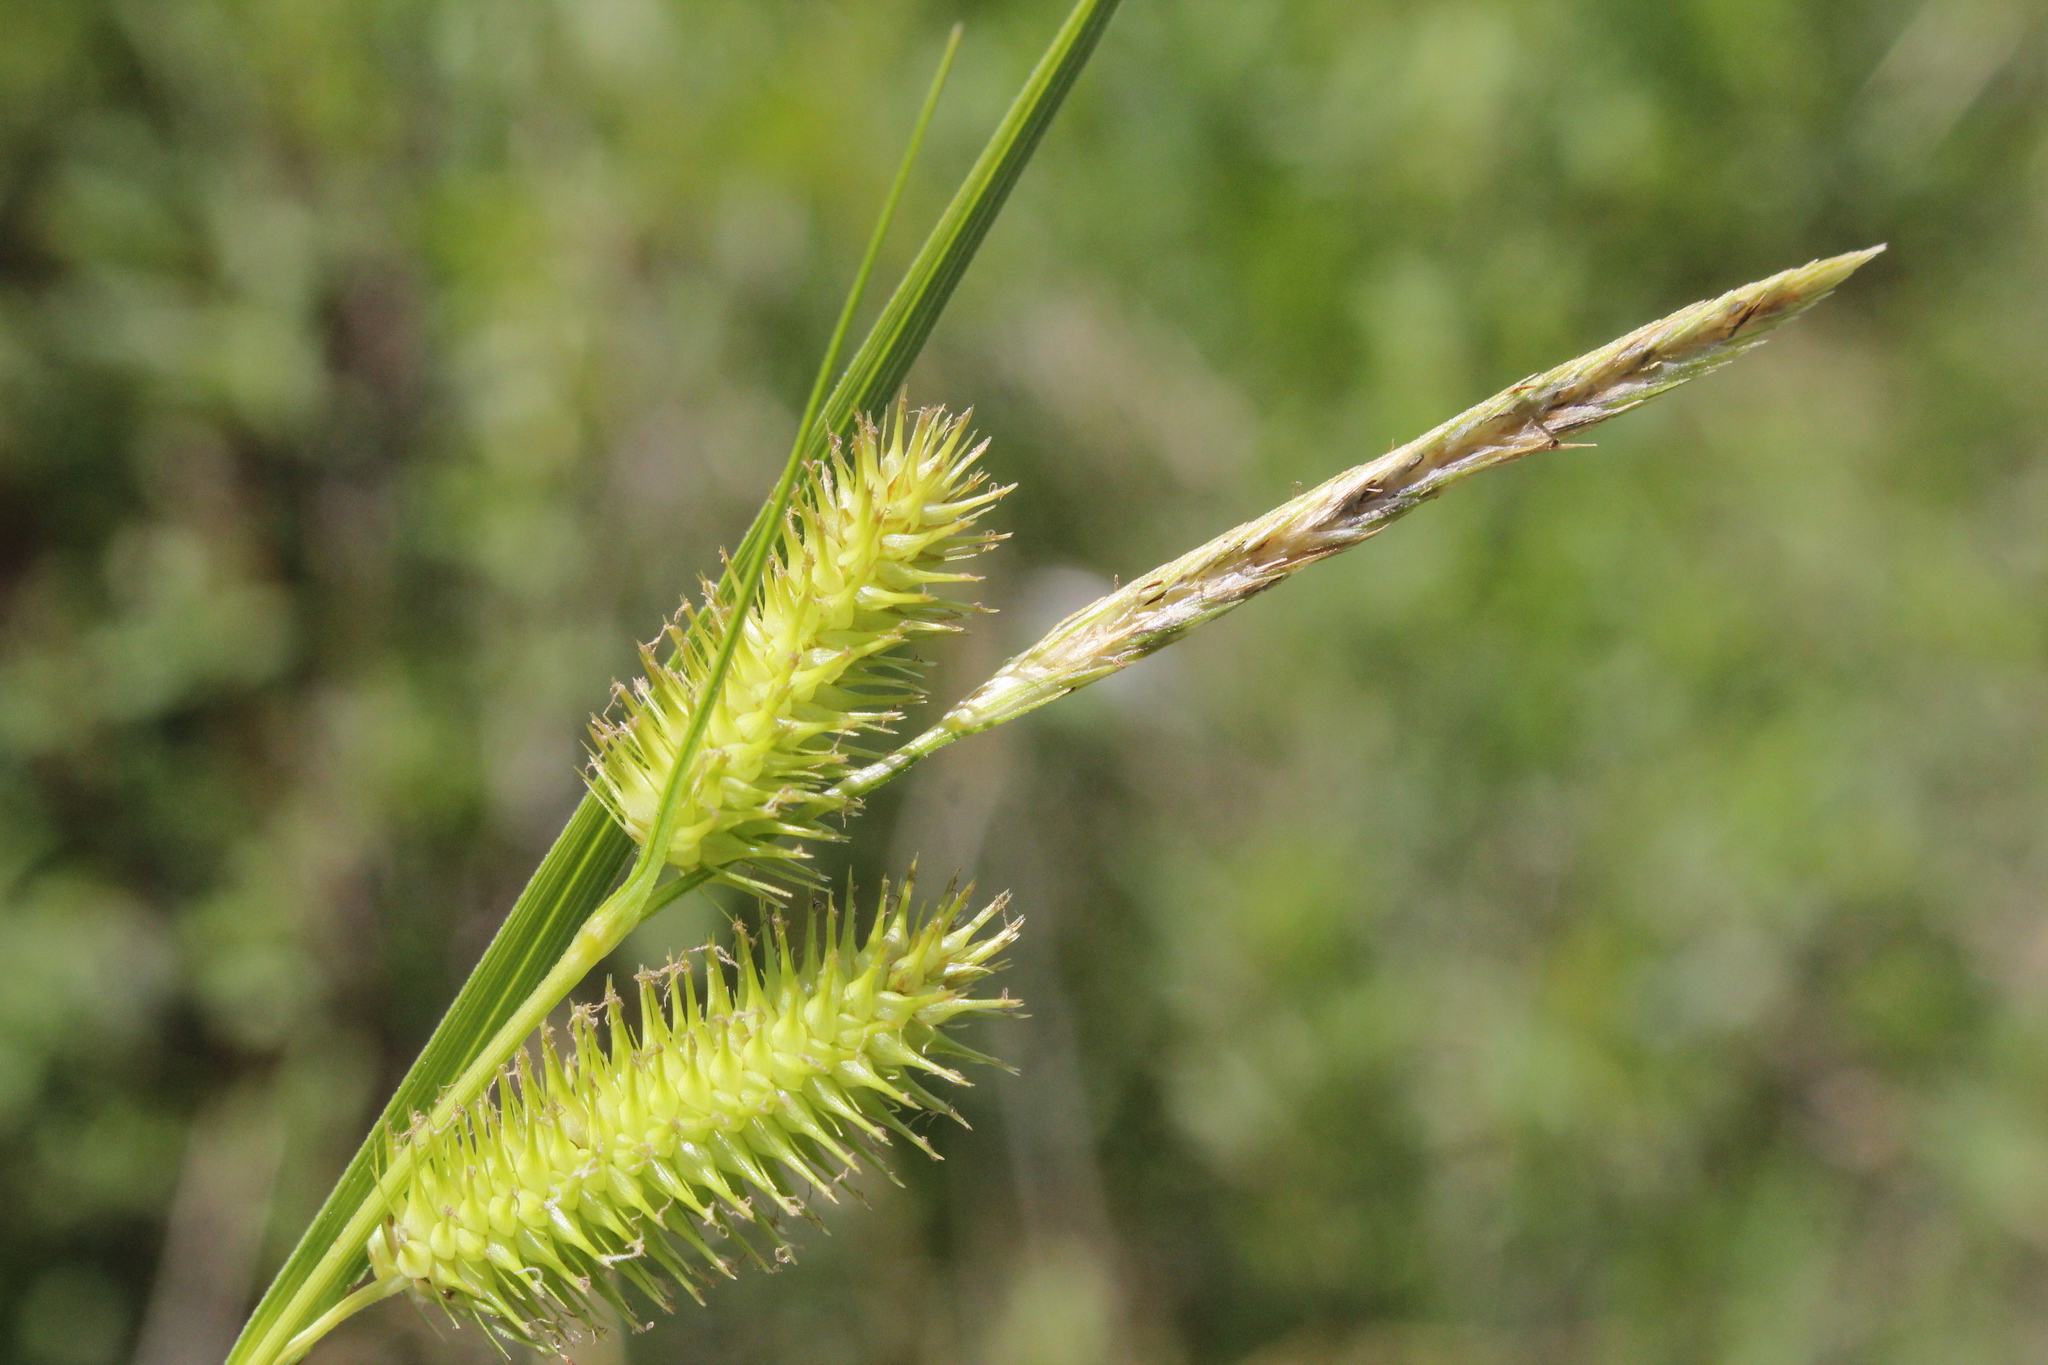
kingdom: Plantae
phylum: Tracheophyta
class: Liliopsida
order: Poales
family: Cyperaceae
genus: Carex
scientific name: Carex hystericina
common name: Bottlebrush sedge
